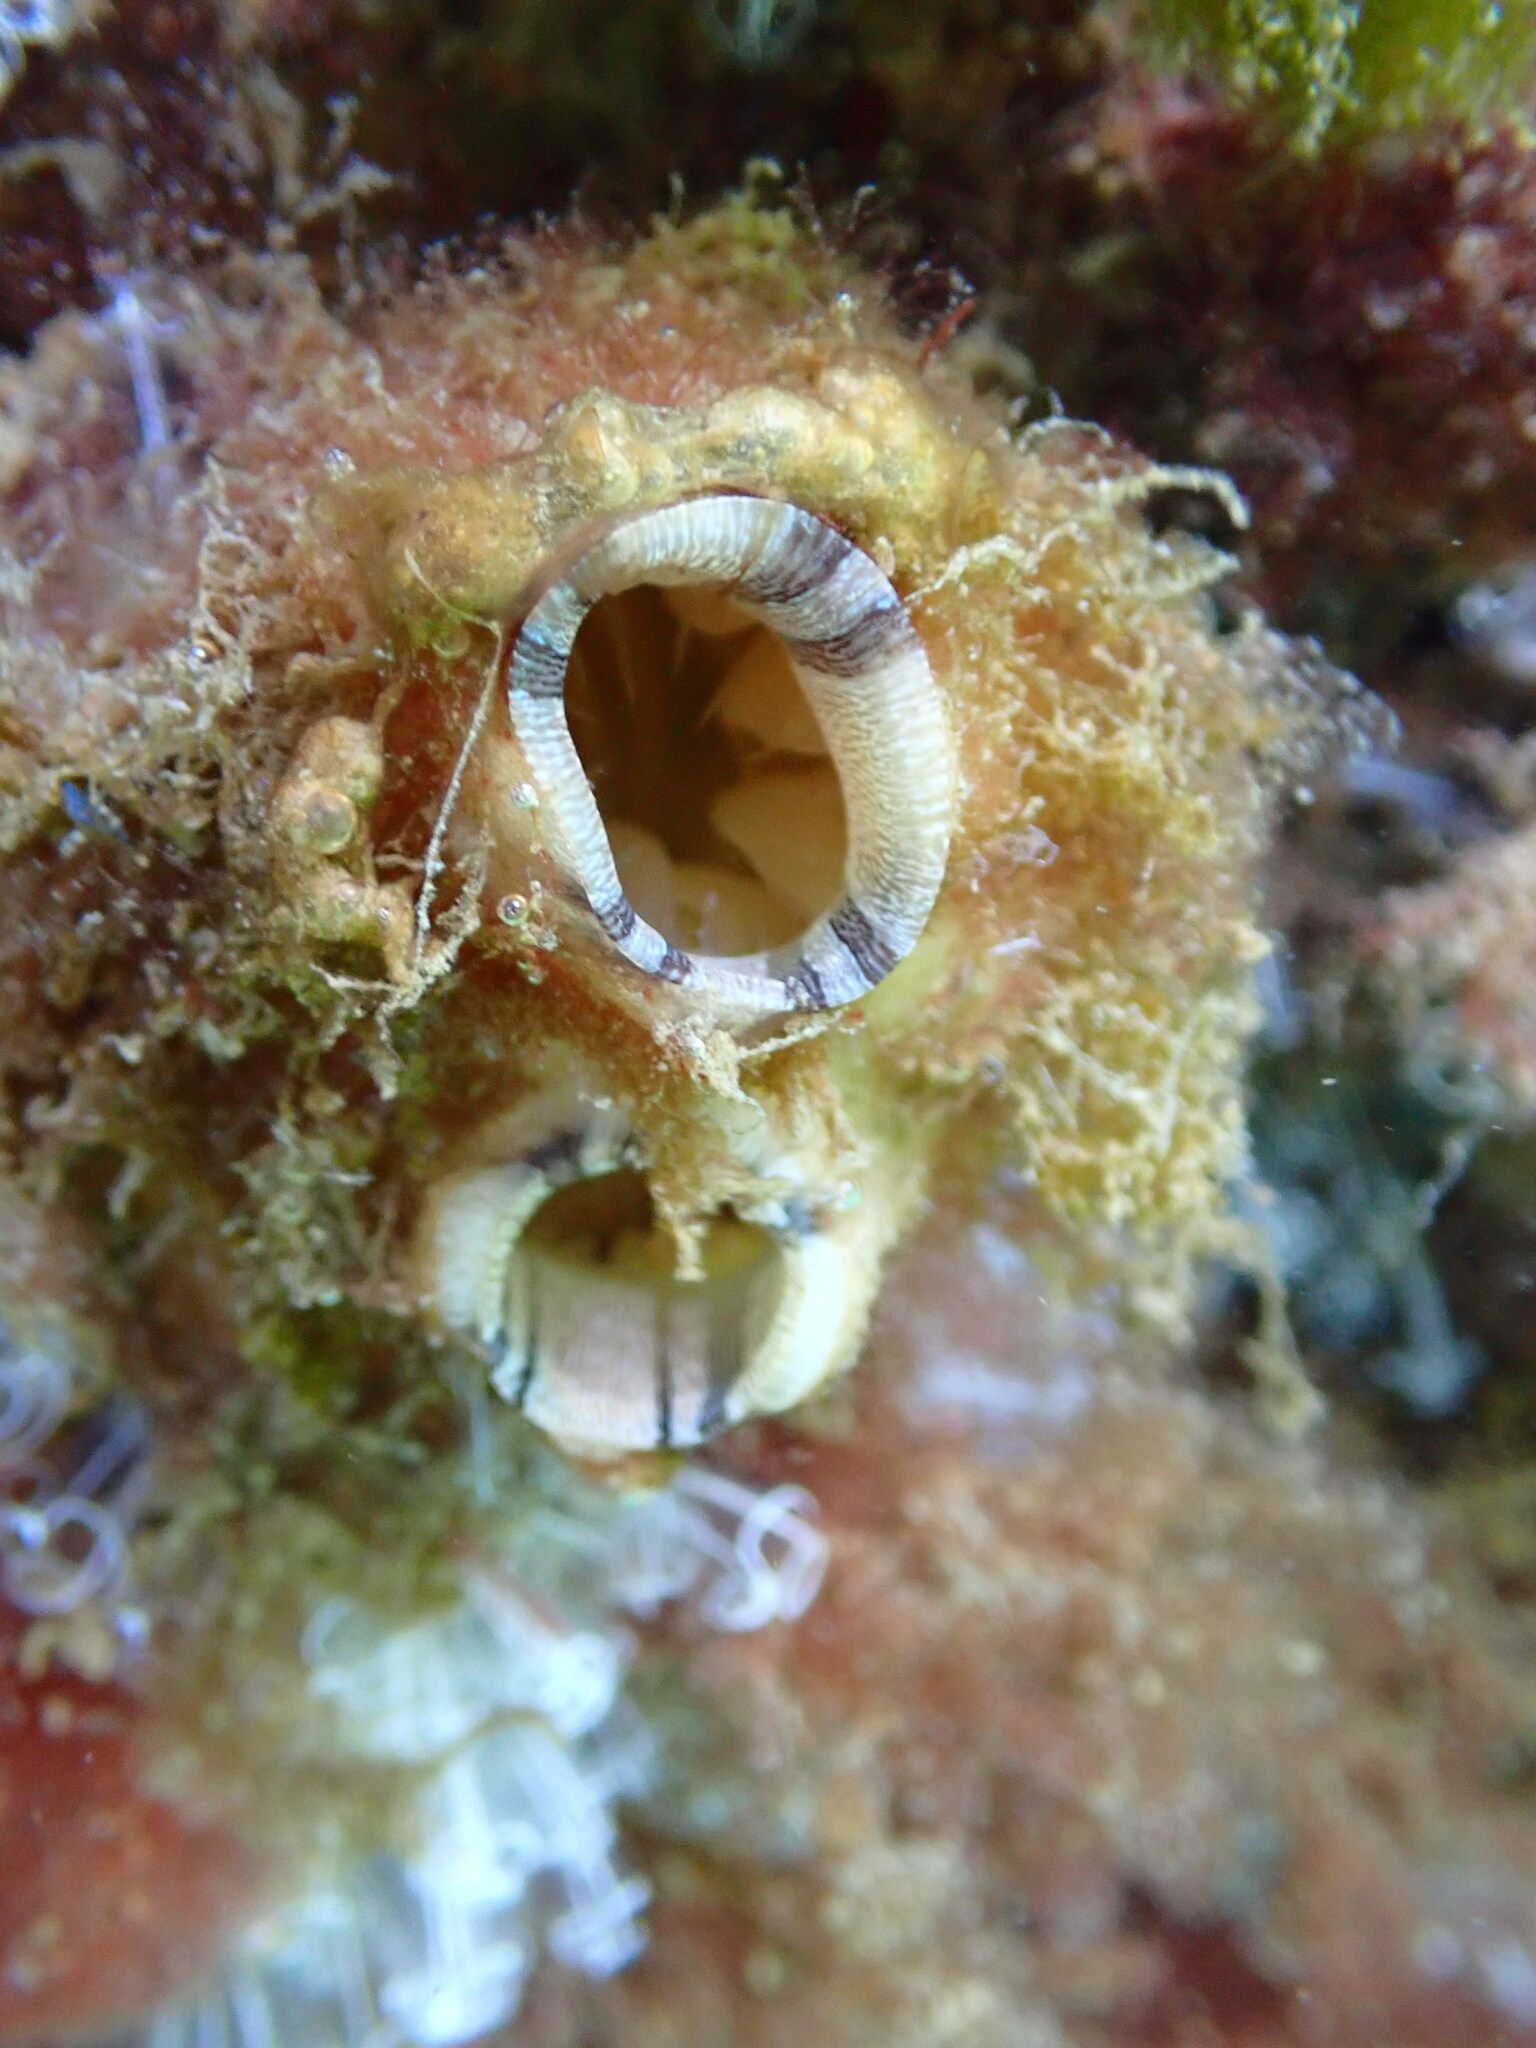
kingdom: Animalia
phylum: Chordata
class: Ascidiacea
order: Stolidobranchia
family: Styelidae
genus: Styela
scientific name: Styela plicata
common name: Pleated tunicate
